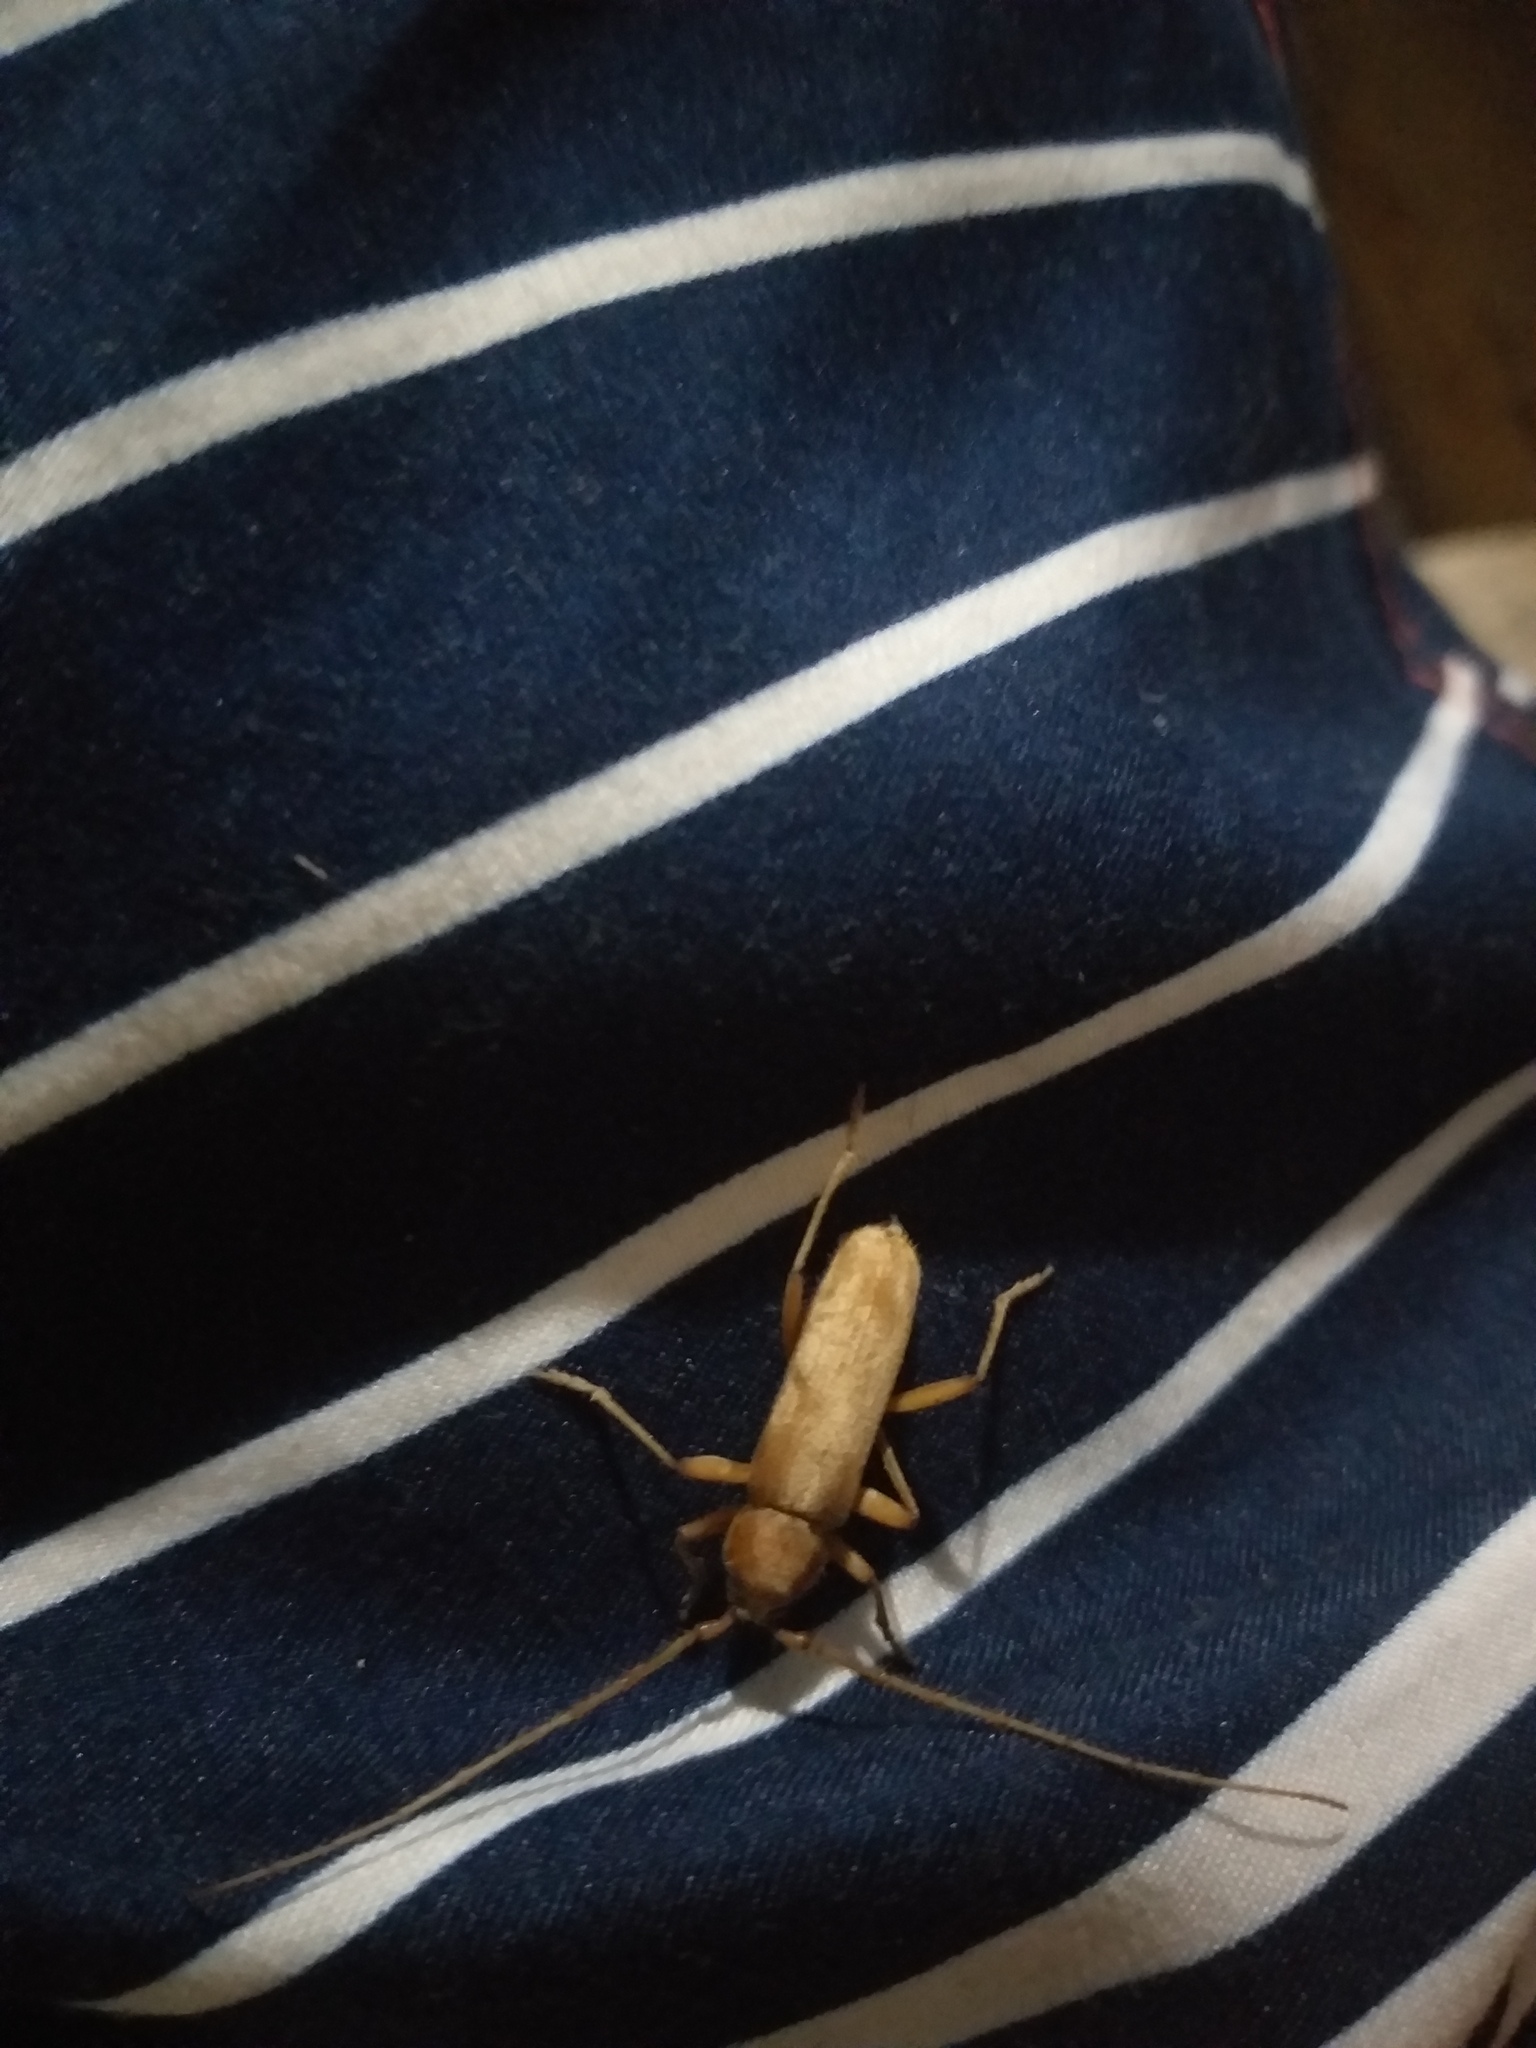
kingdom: Animalia
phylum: Arthropoda
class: Insecta
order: Coleoptera
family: Cerambycidae
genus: Stromatium
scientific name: Stromatium auratum
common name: Long-horned beetle
